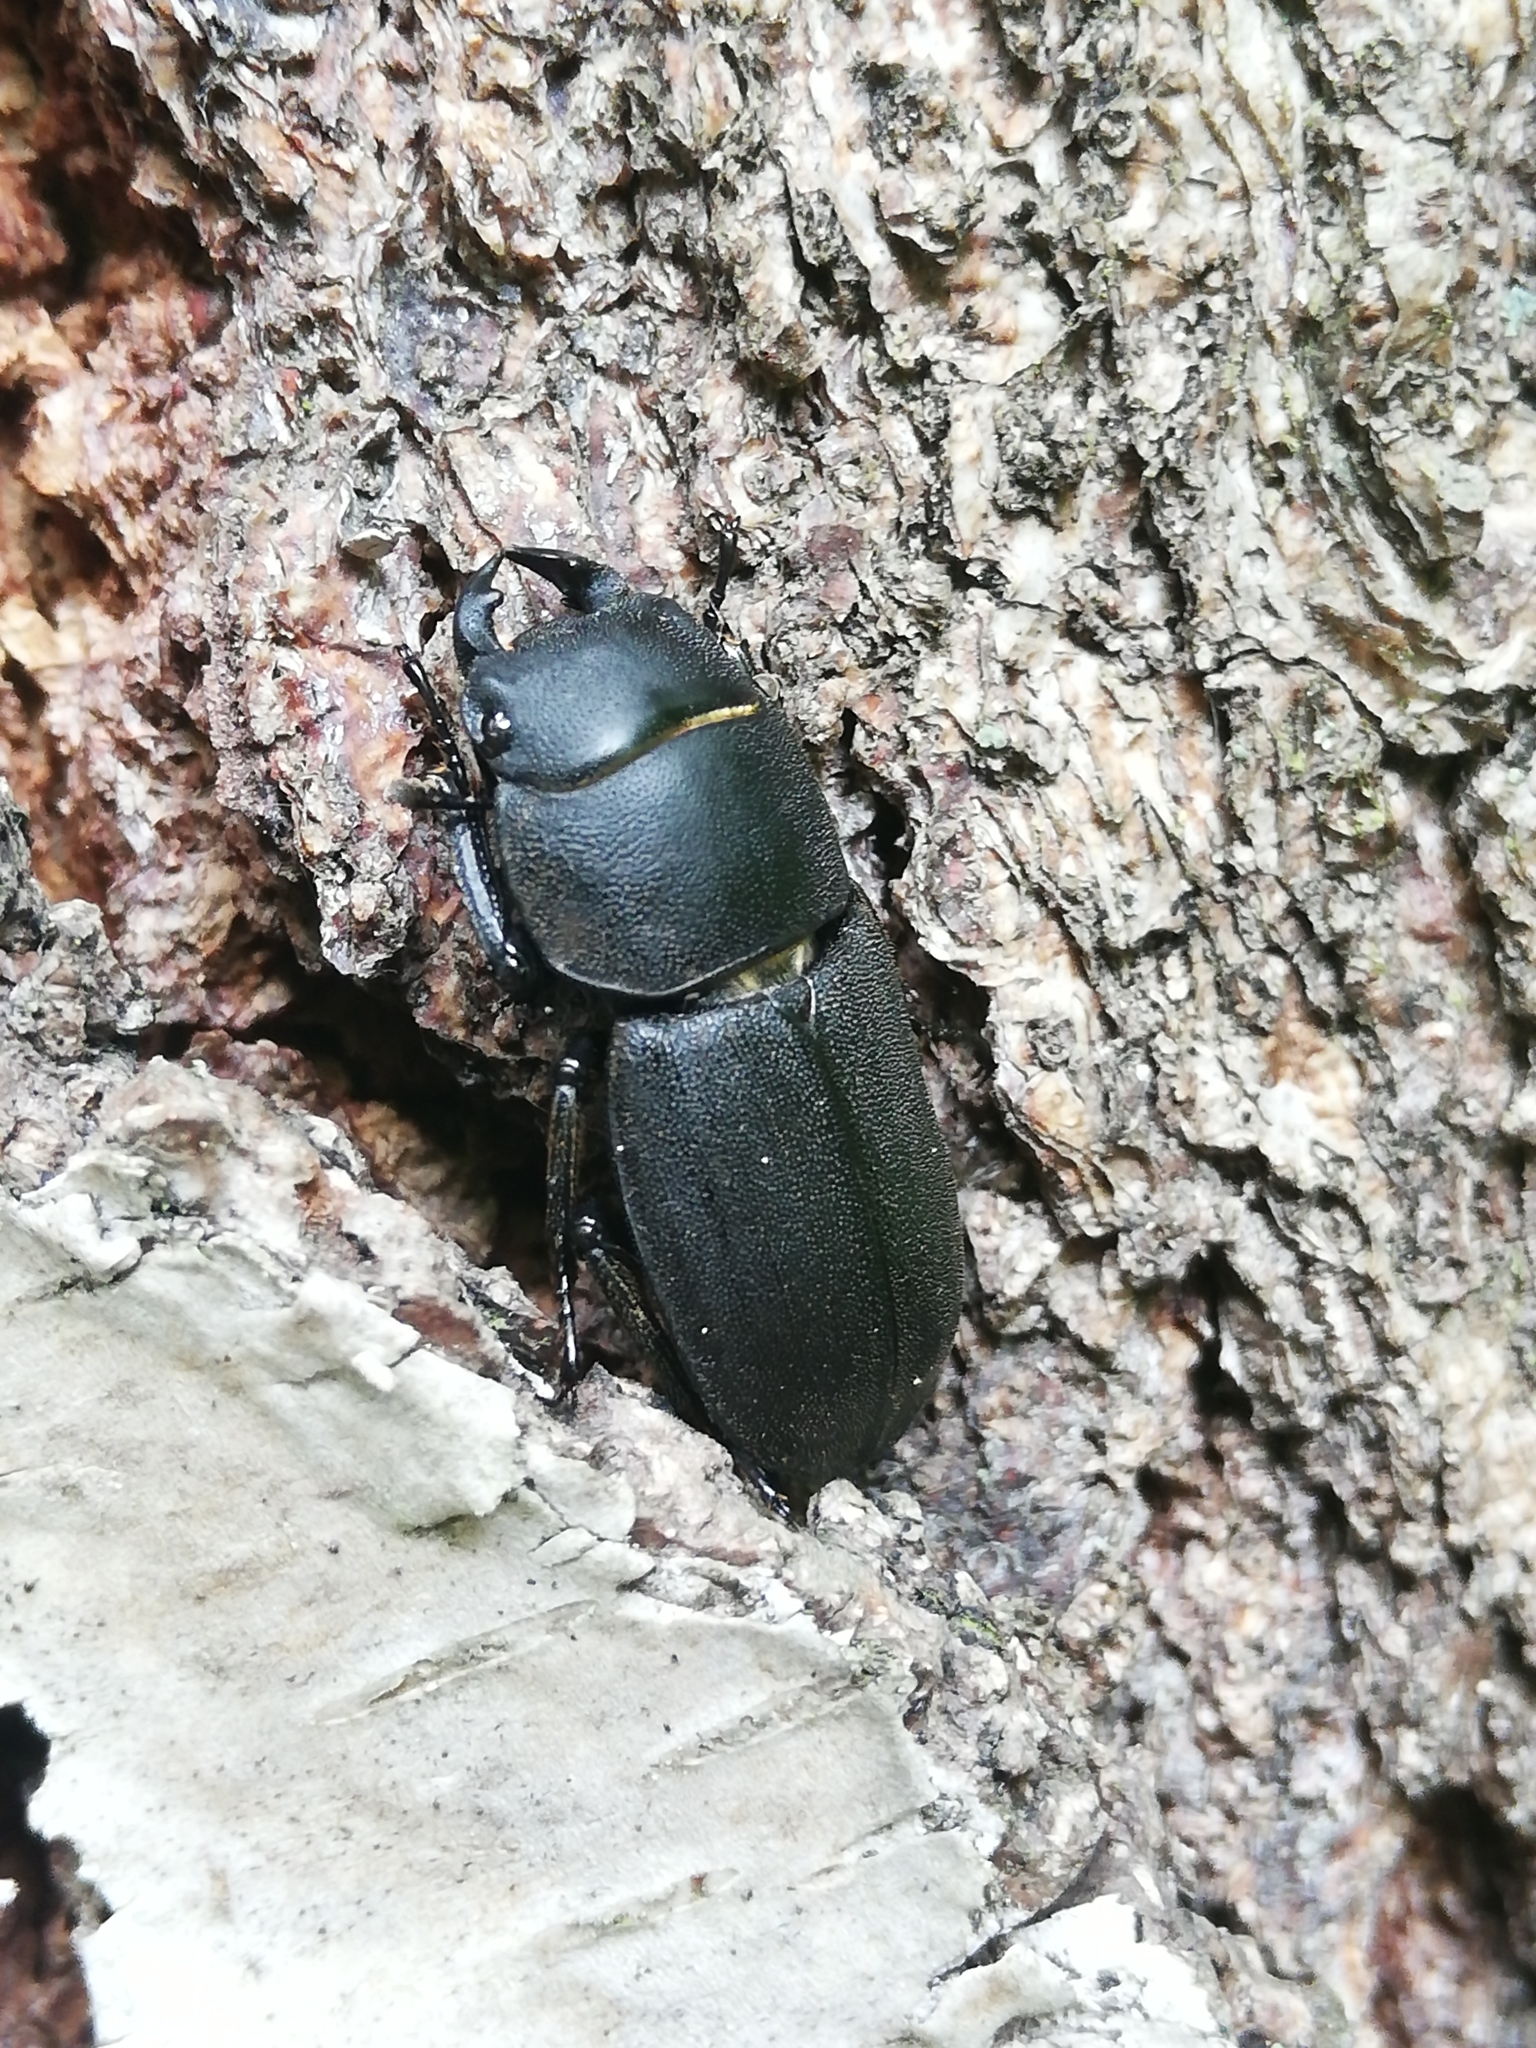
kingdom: Animalia
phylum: Arthropoda
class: Insecta
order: Coleoptera
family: Lucanidae
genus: Dorcus
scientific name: Dorcus parallelipipedus
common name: Lesser stag beetle
